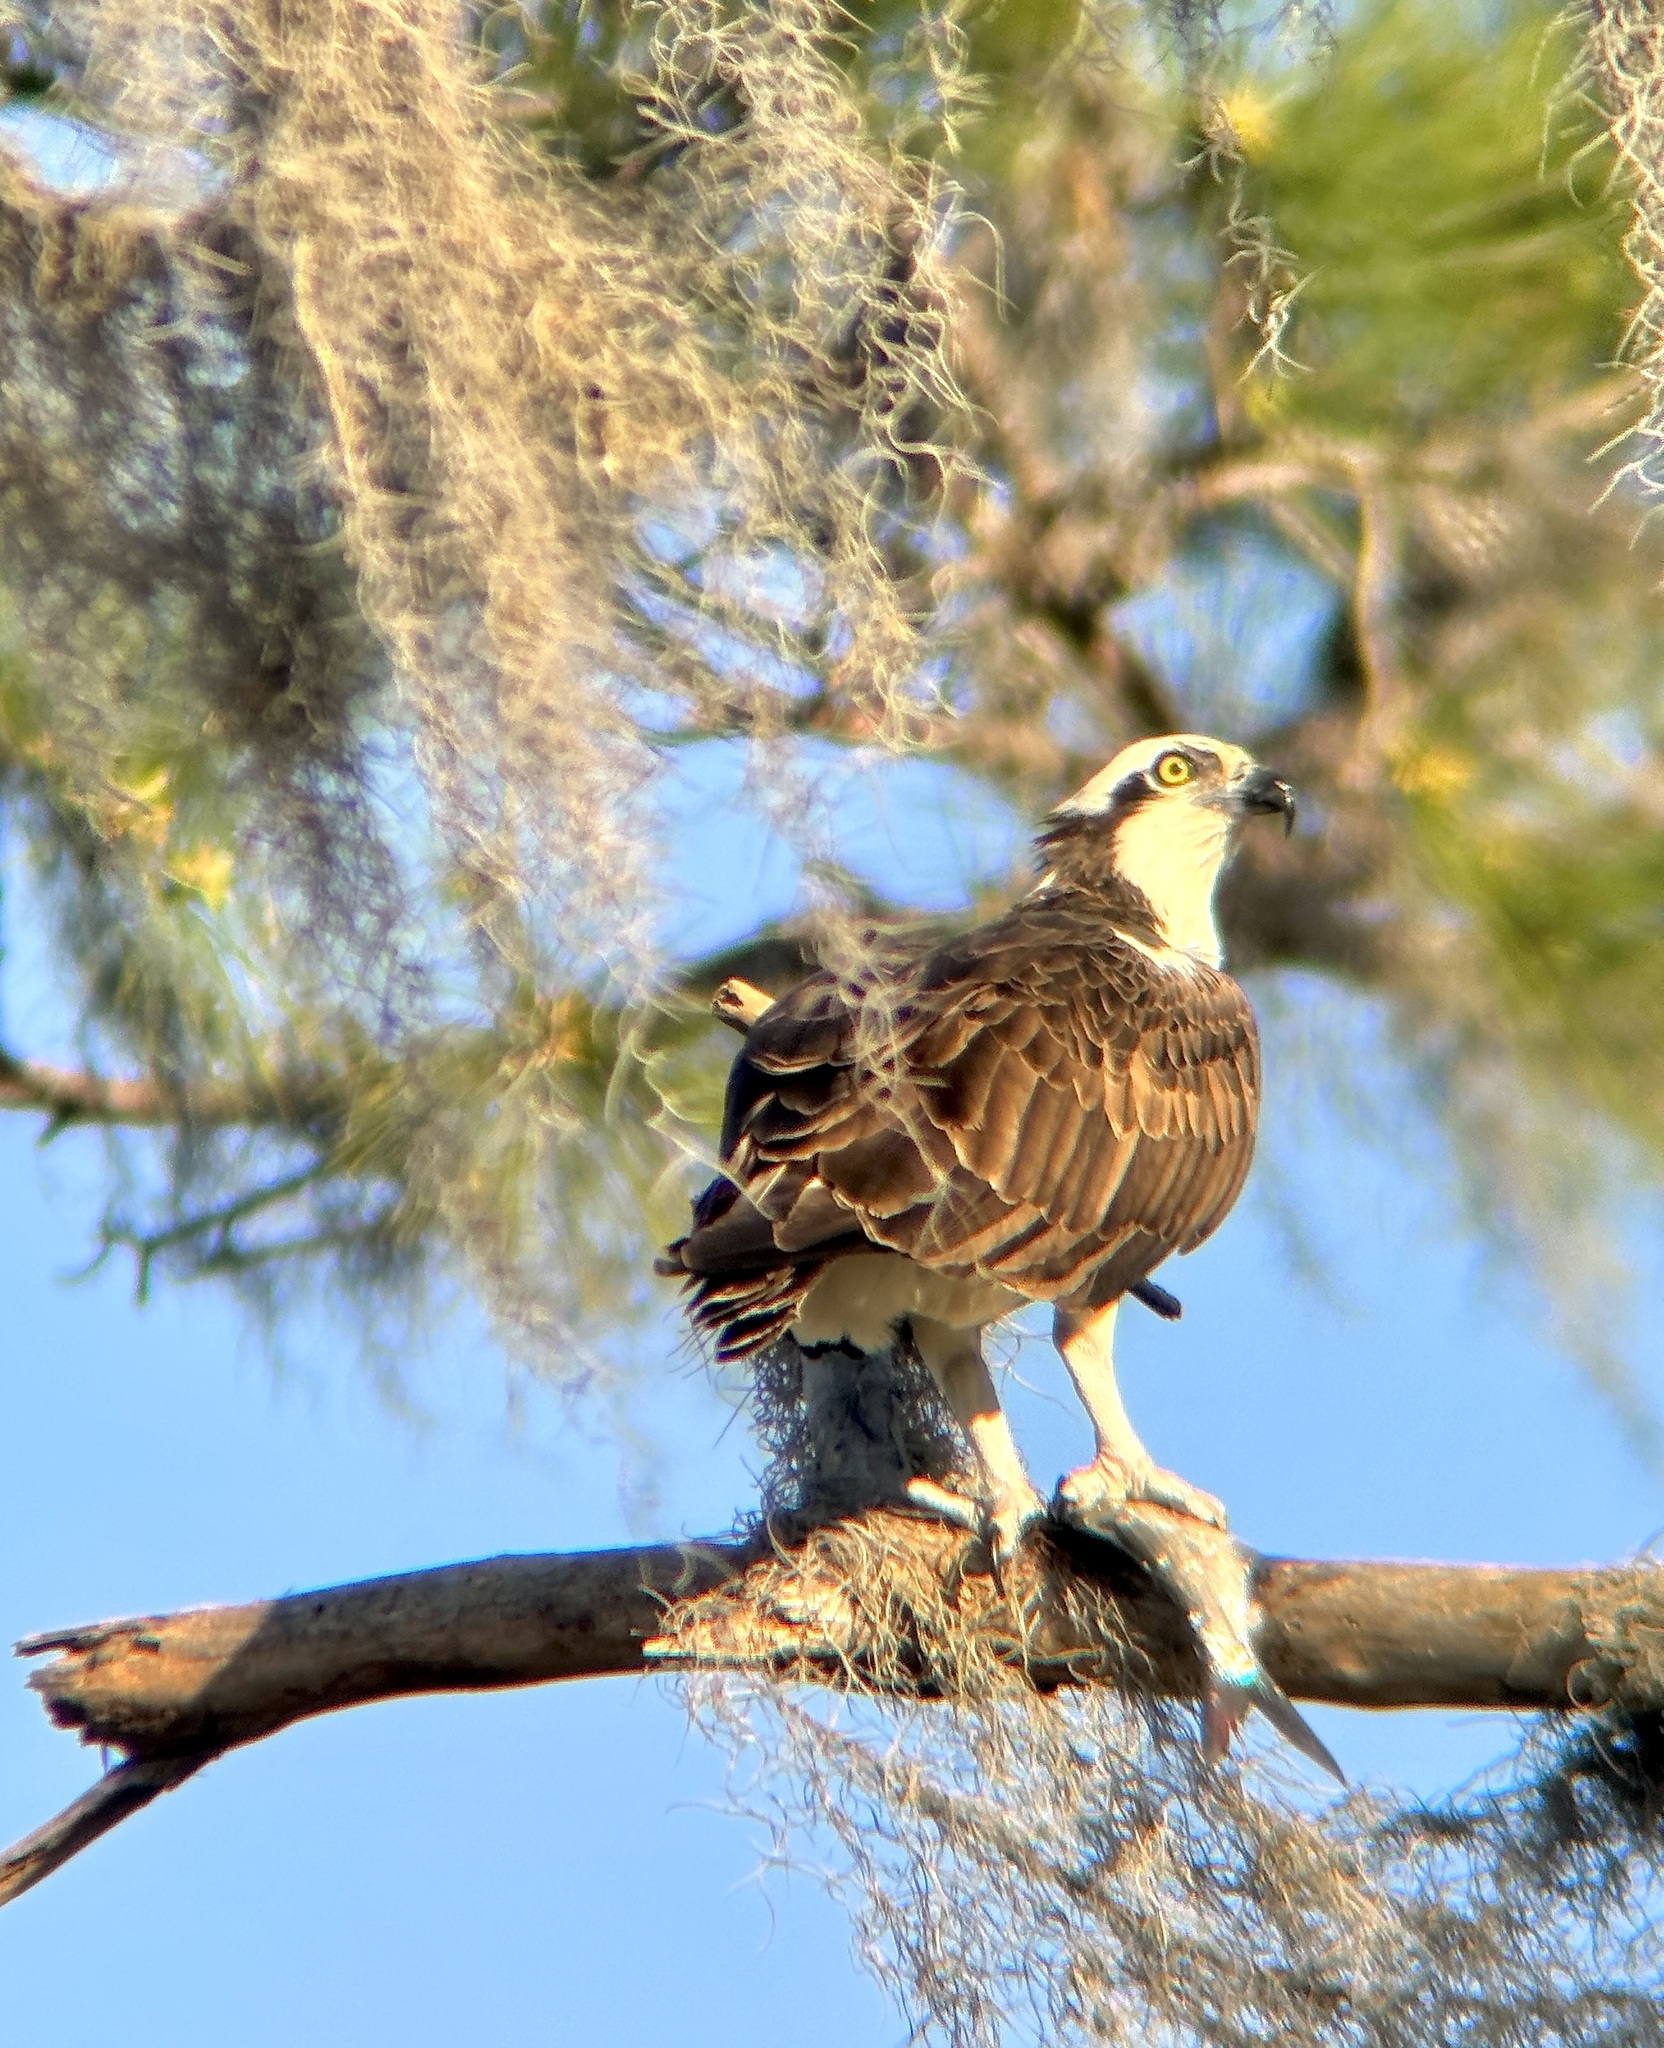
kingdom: Animalia
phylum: Chordata
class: Aves
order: Accipitriformes
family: Pandionidae
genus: Pandion
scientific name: Pandion haliaetus
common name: Osprey
